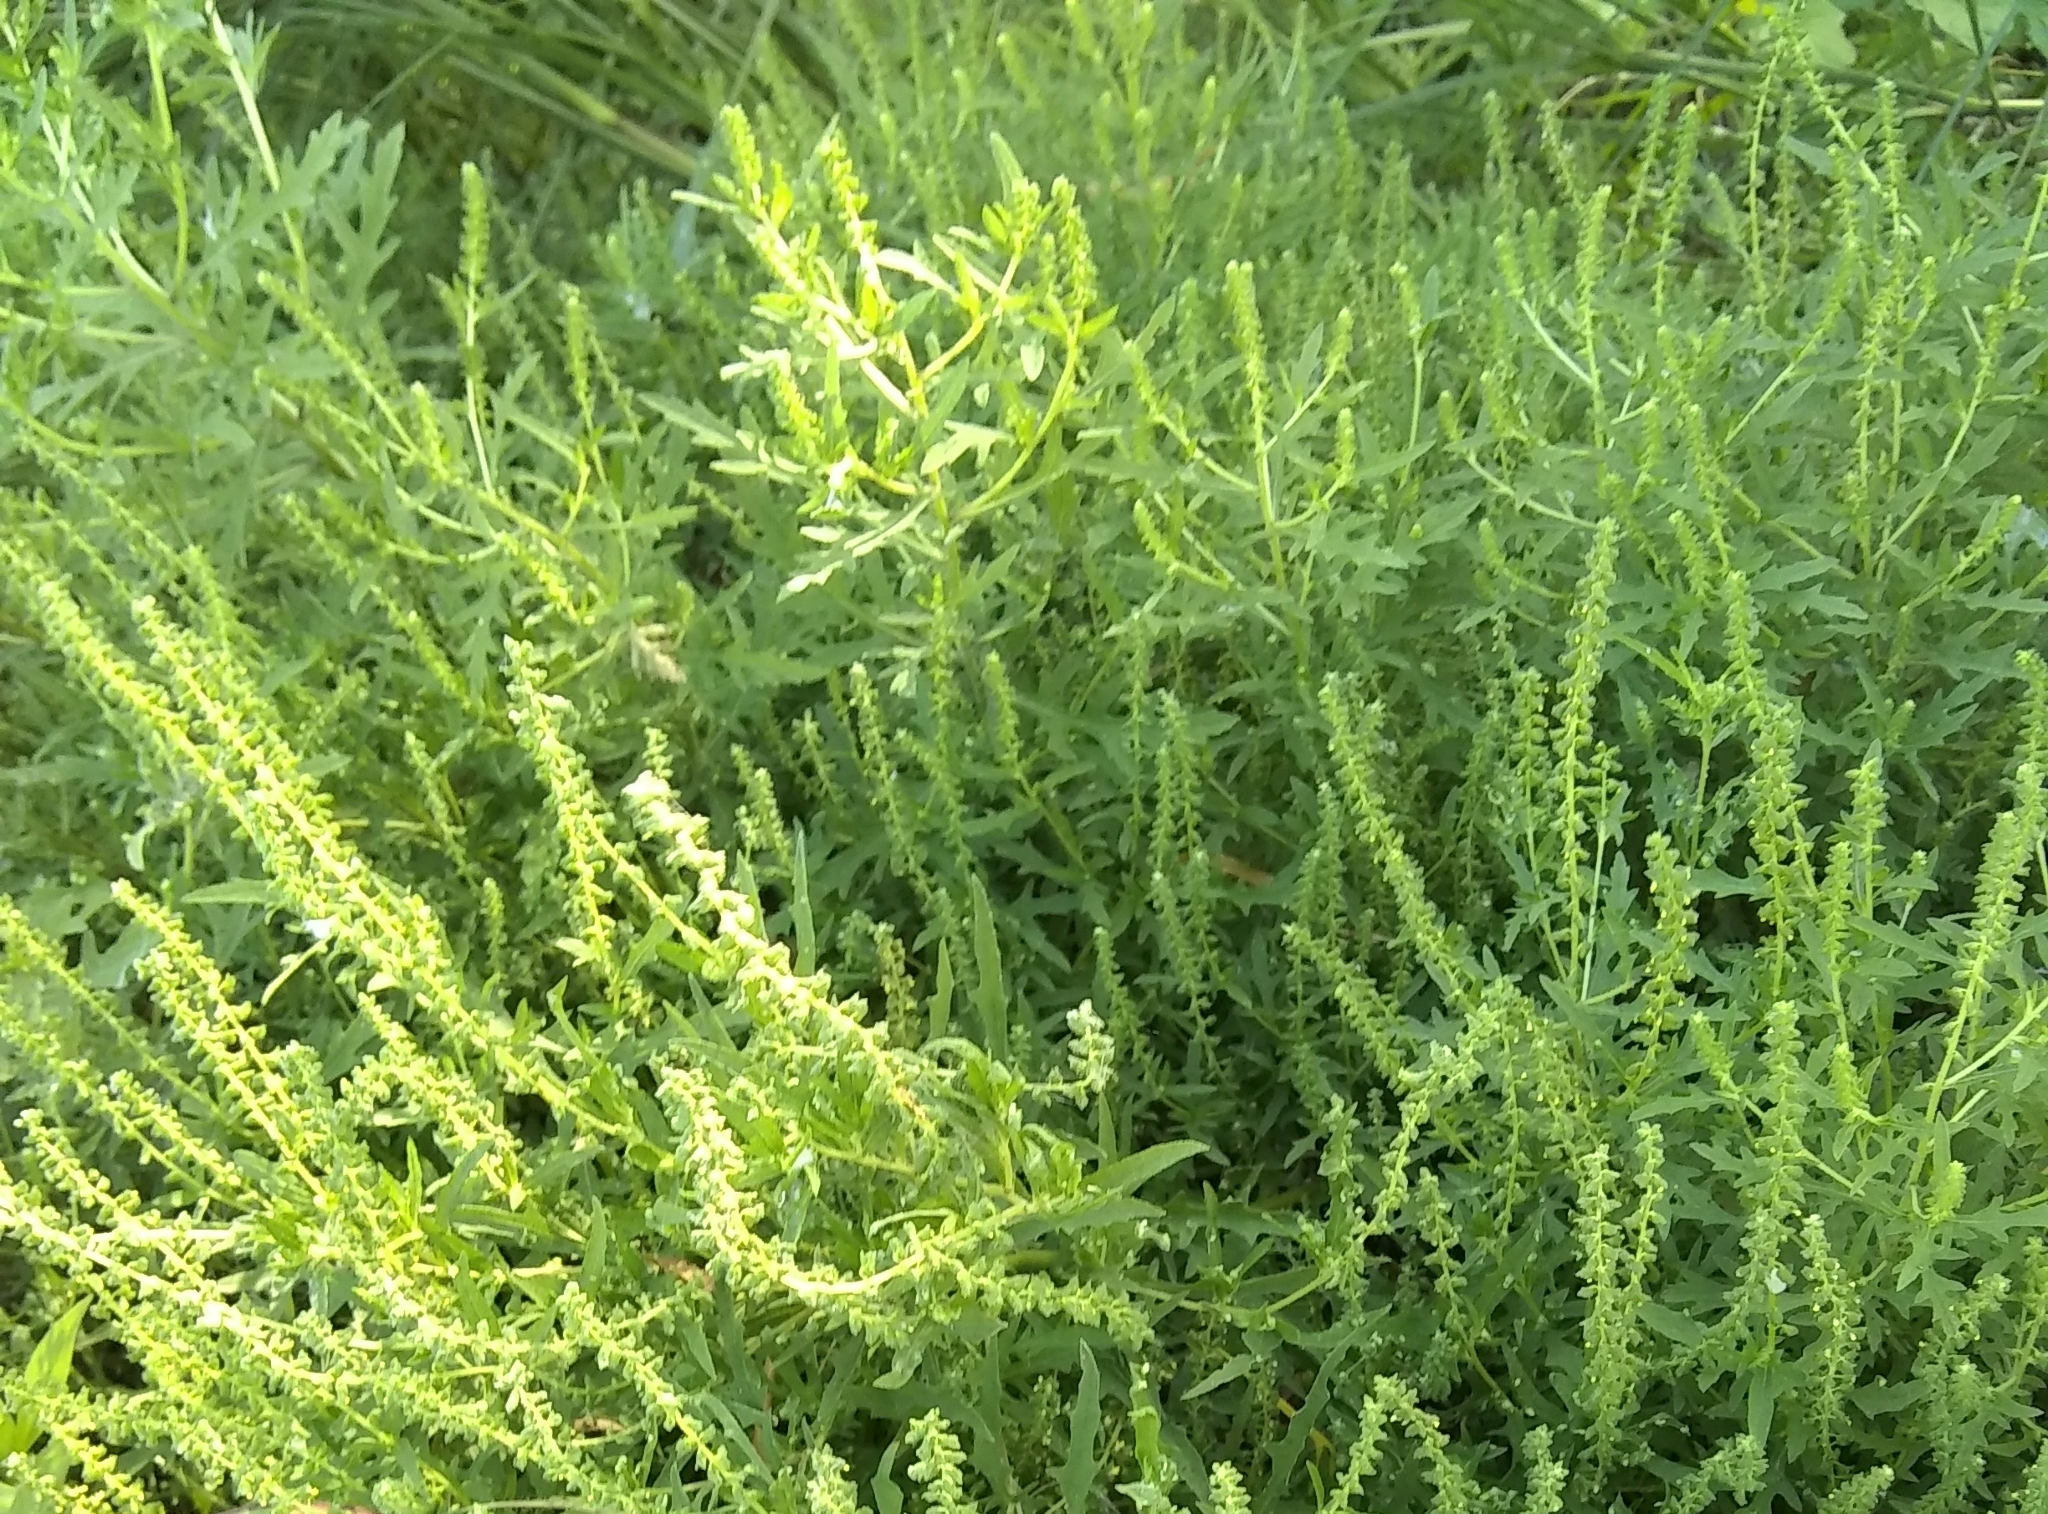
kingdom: Plantae
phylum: Tracheophyta
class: Magnoliopsida
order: Asterales
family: Asteraceae
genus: Ambrosia
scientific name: Ambrosia psilostachya
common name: Perennial ragweed
